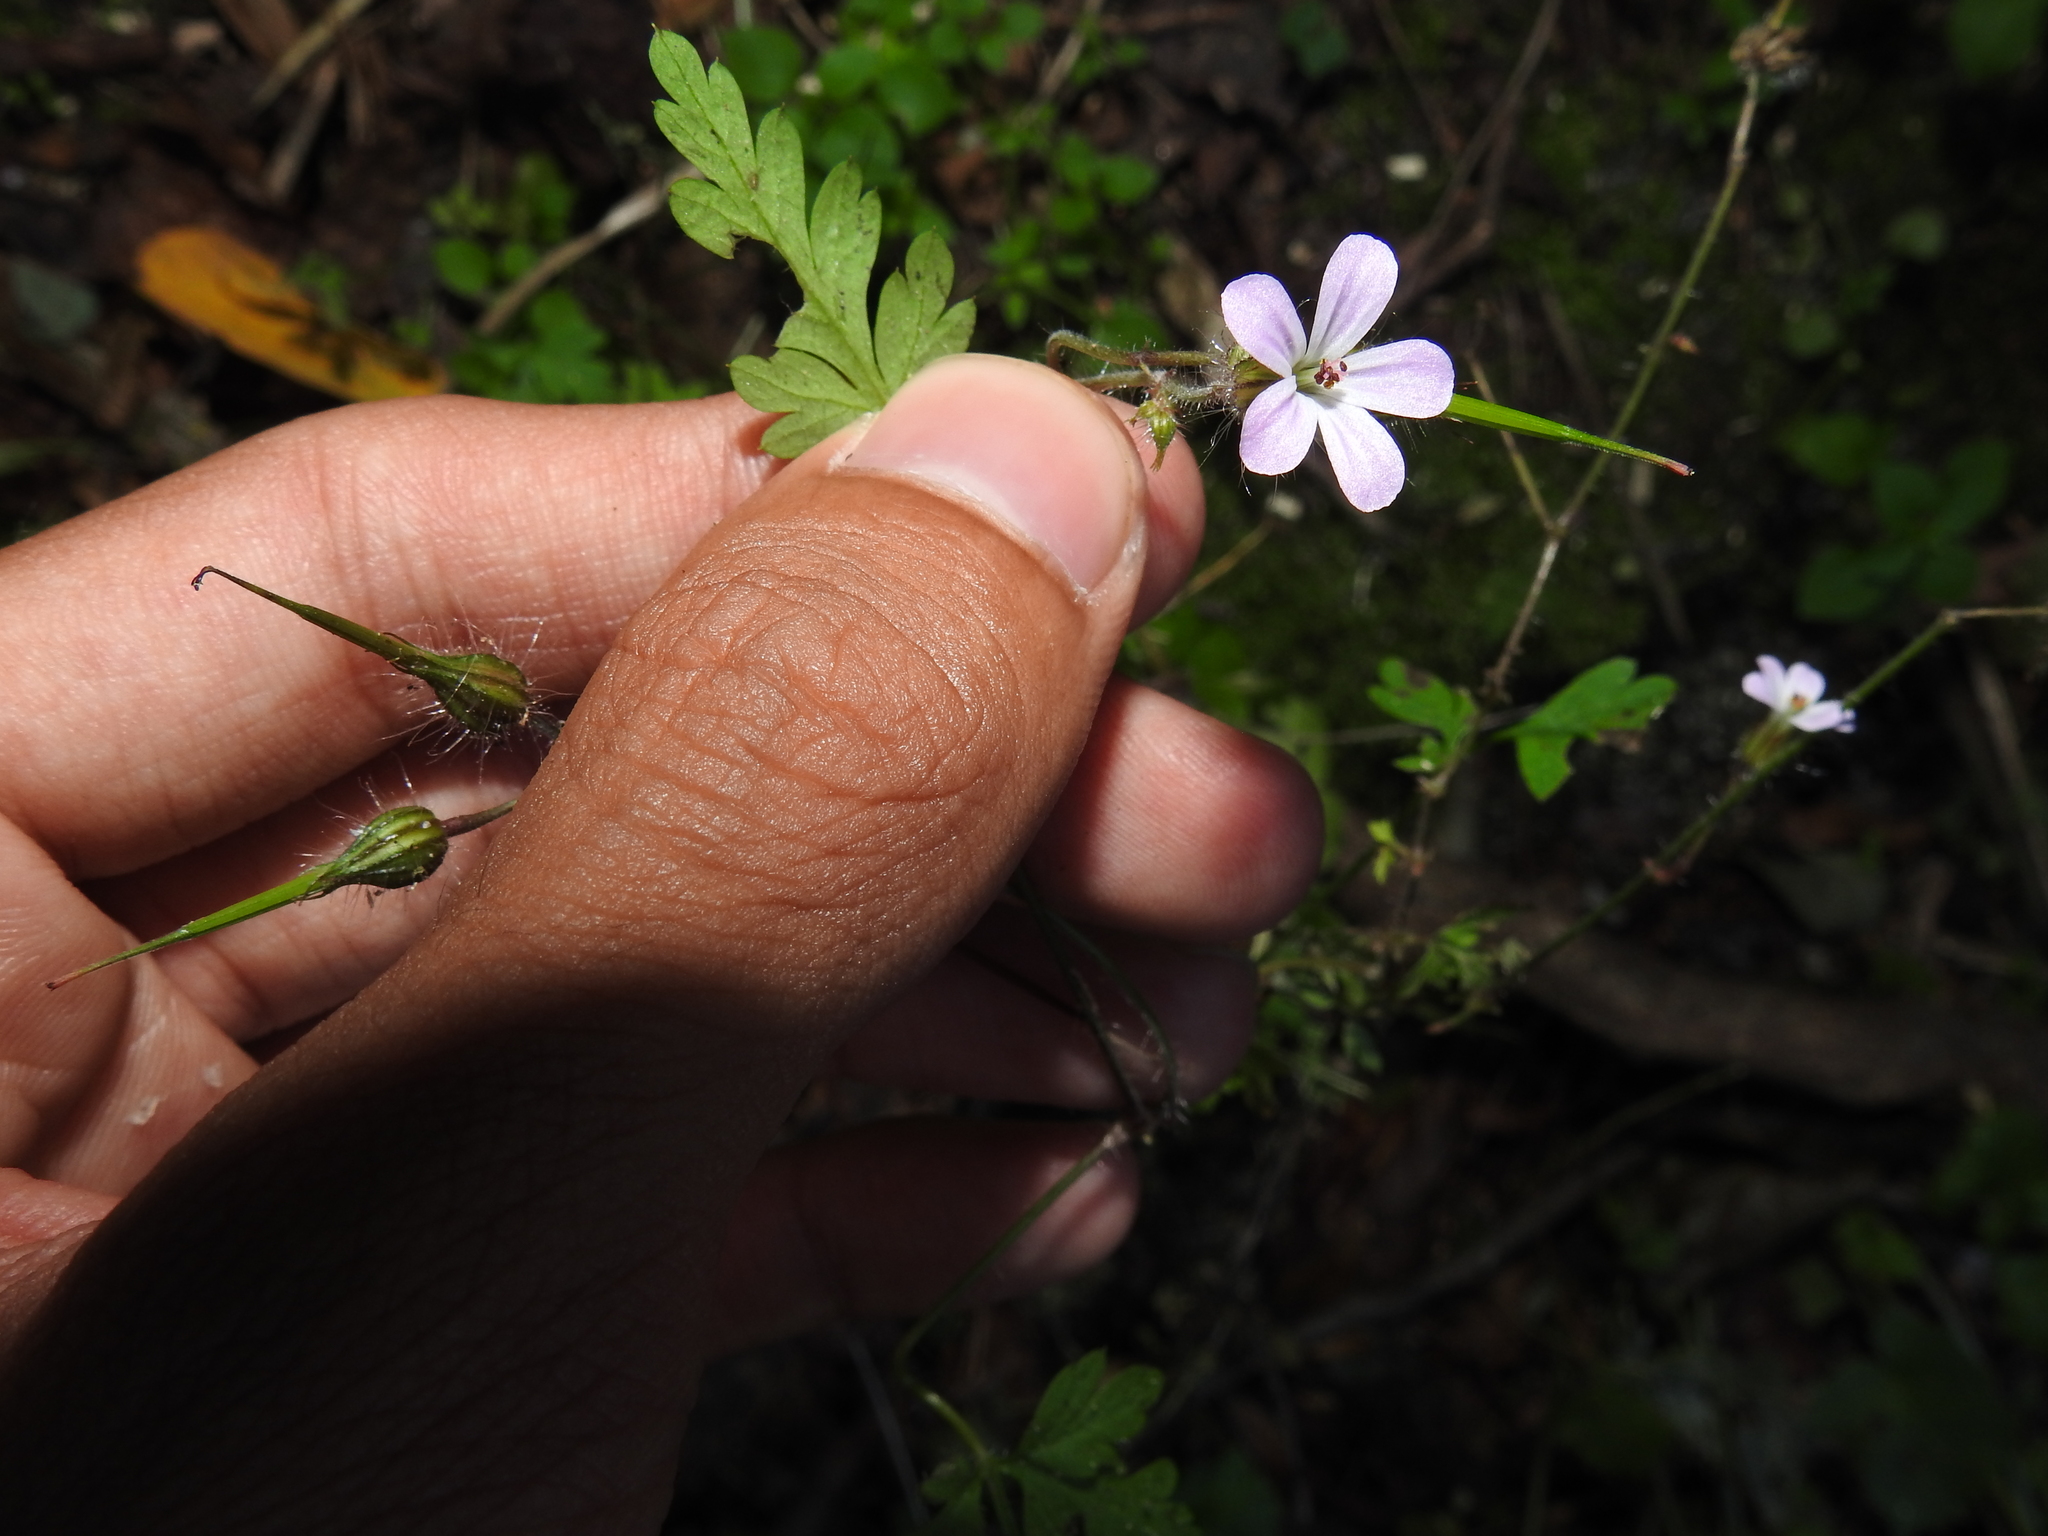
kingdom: Plantae
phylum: Tracheophyta
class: Magnoliopsida
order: Geraniales
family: Geraniaceae
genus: Geranium
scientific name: Geranium robertianum
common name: Herb-robert
